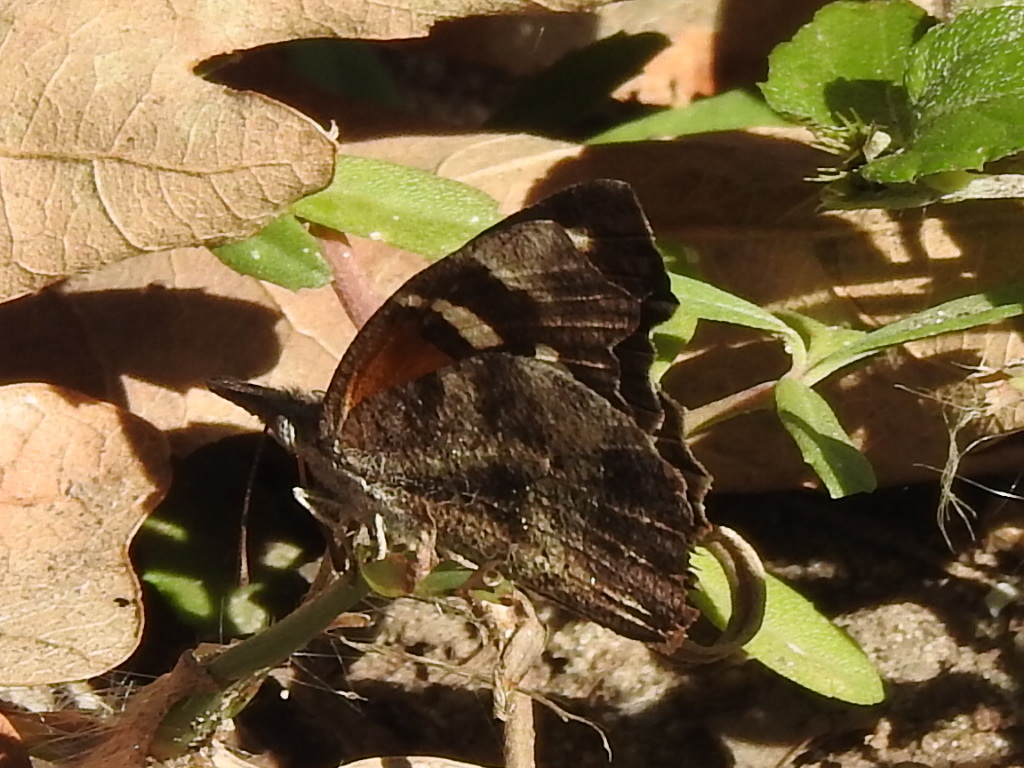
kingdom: Animalia
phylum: Arthropoda
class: Insecta
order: Lepidoptera
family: Nymphalidae
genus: Libytheana
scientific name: Libytheana carinenta
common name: American snout
